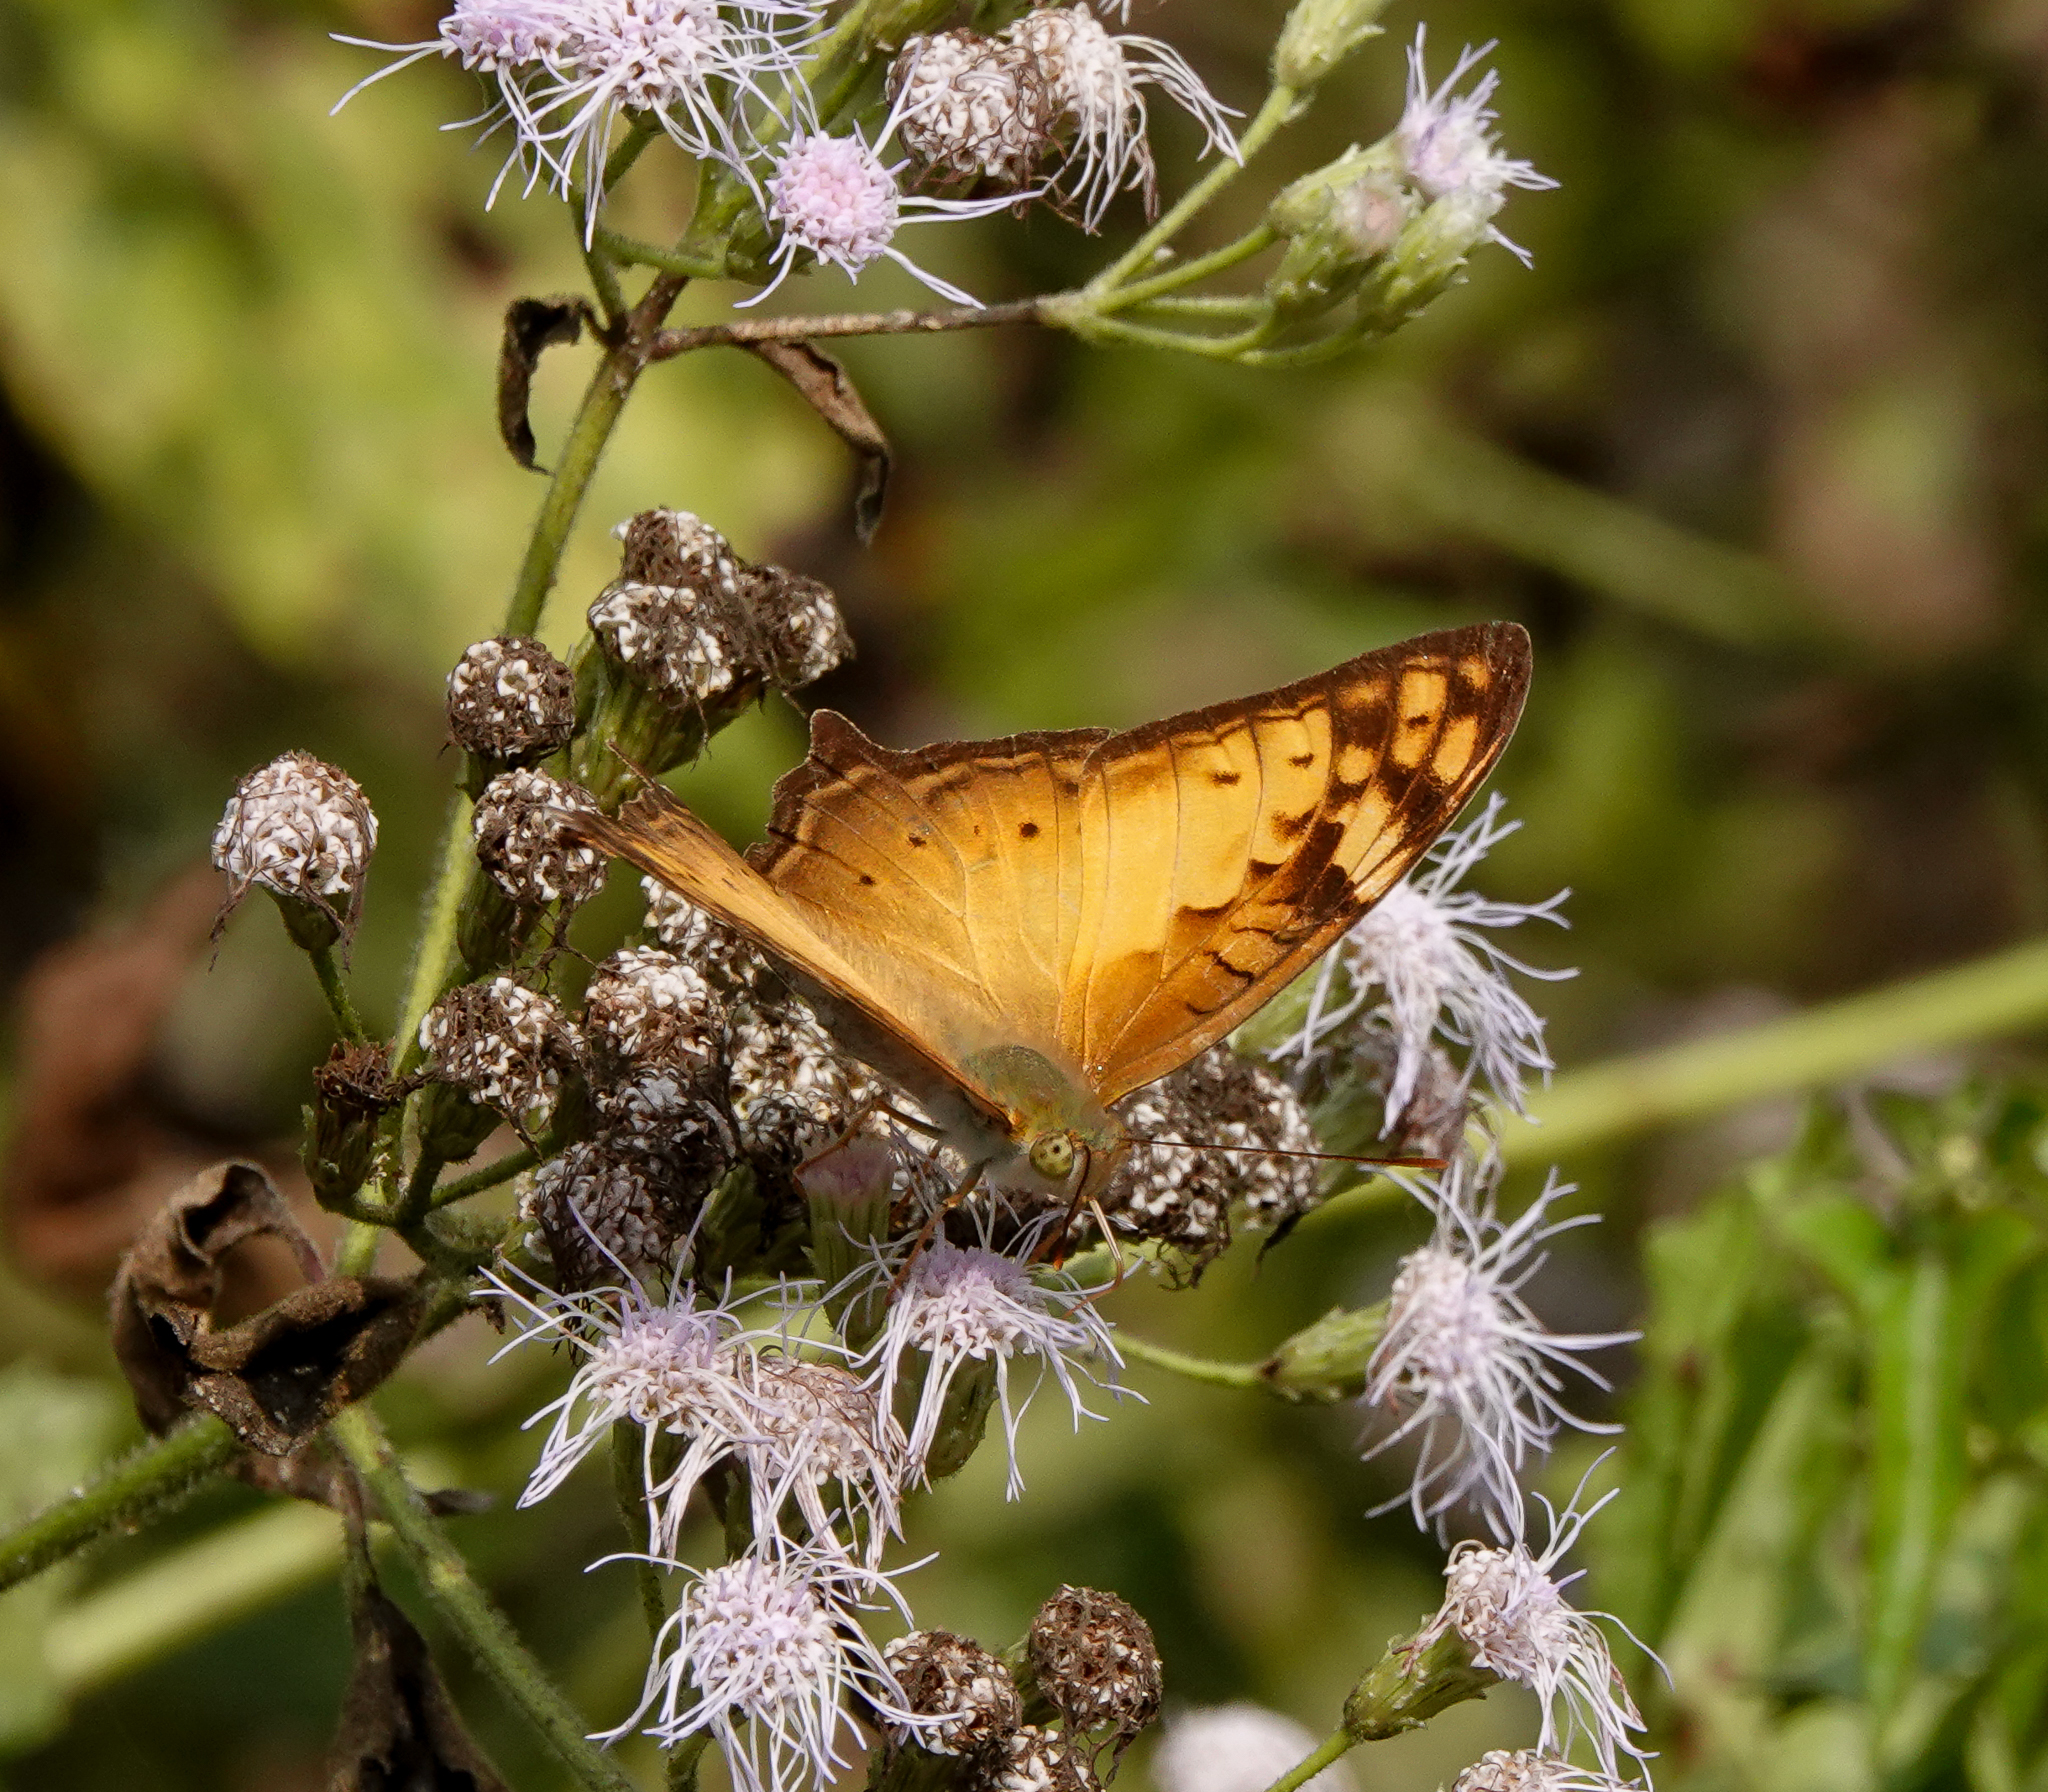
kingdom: Animalia
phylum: Arthropoda
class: Insecta
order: Lepidoptera
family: Nymphalidae
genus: Vagrans
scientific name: Vagrans sinha
